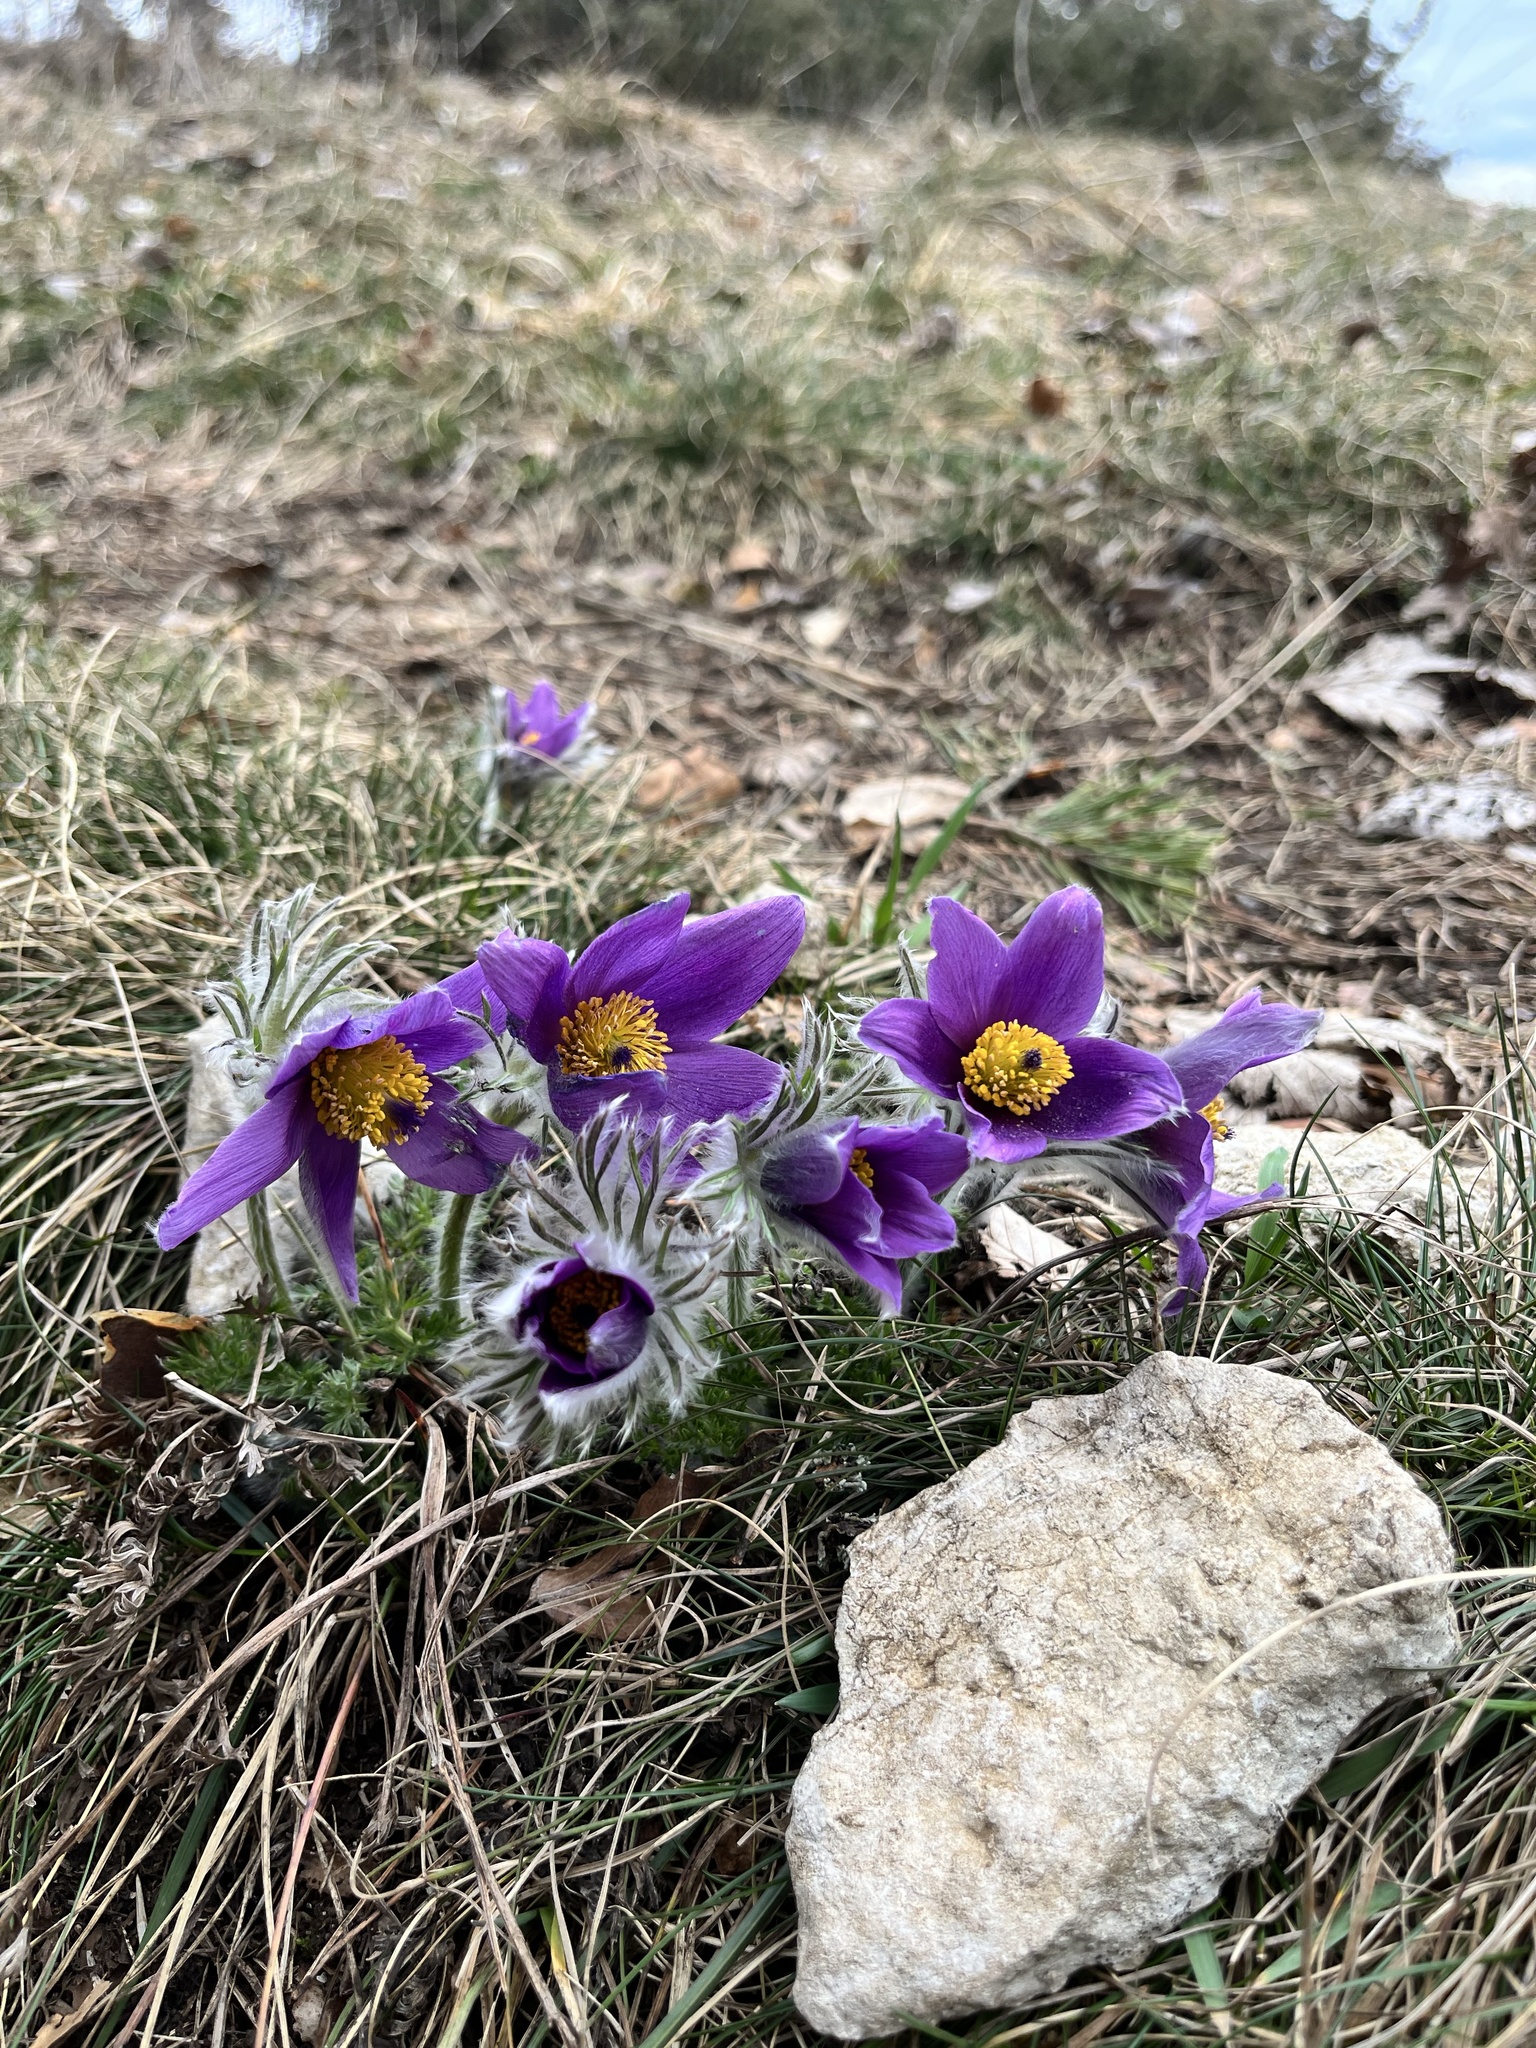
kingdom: Plantae
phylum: Tracheophyta
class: Magnoliopsida
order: Ranunculales
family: Ranunculaceae
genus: Pulsatilla
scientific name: Pulsatilla vulgaris
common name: Pasqueflower
